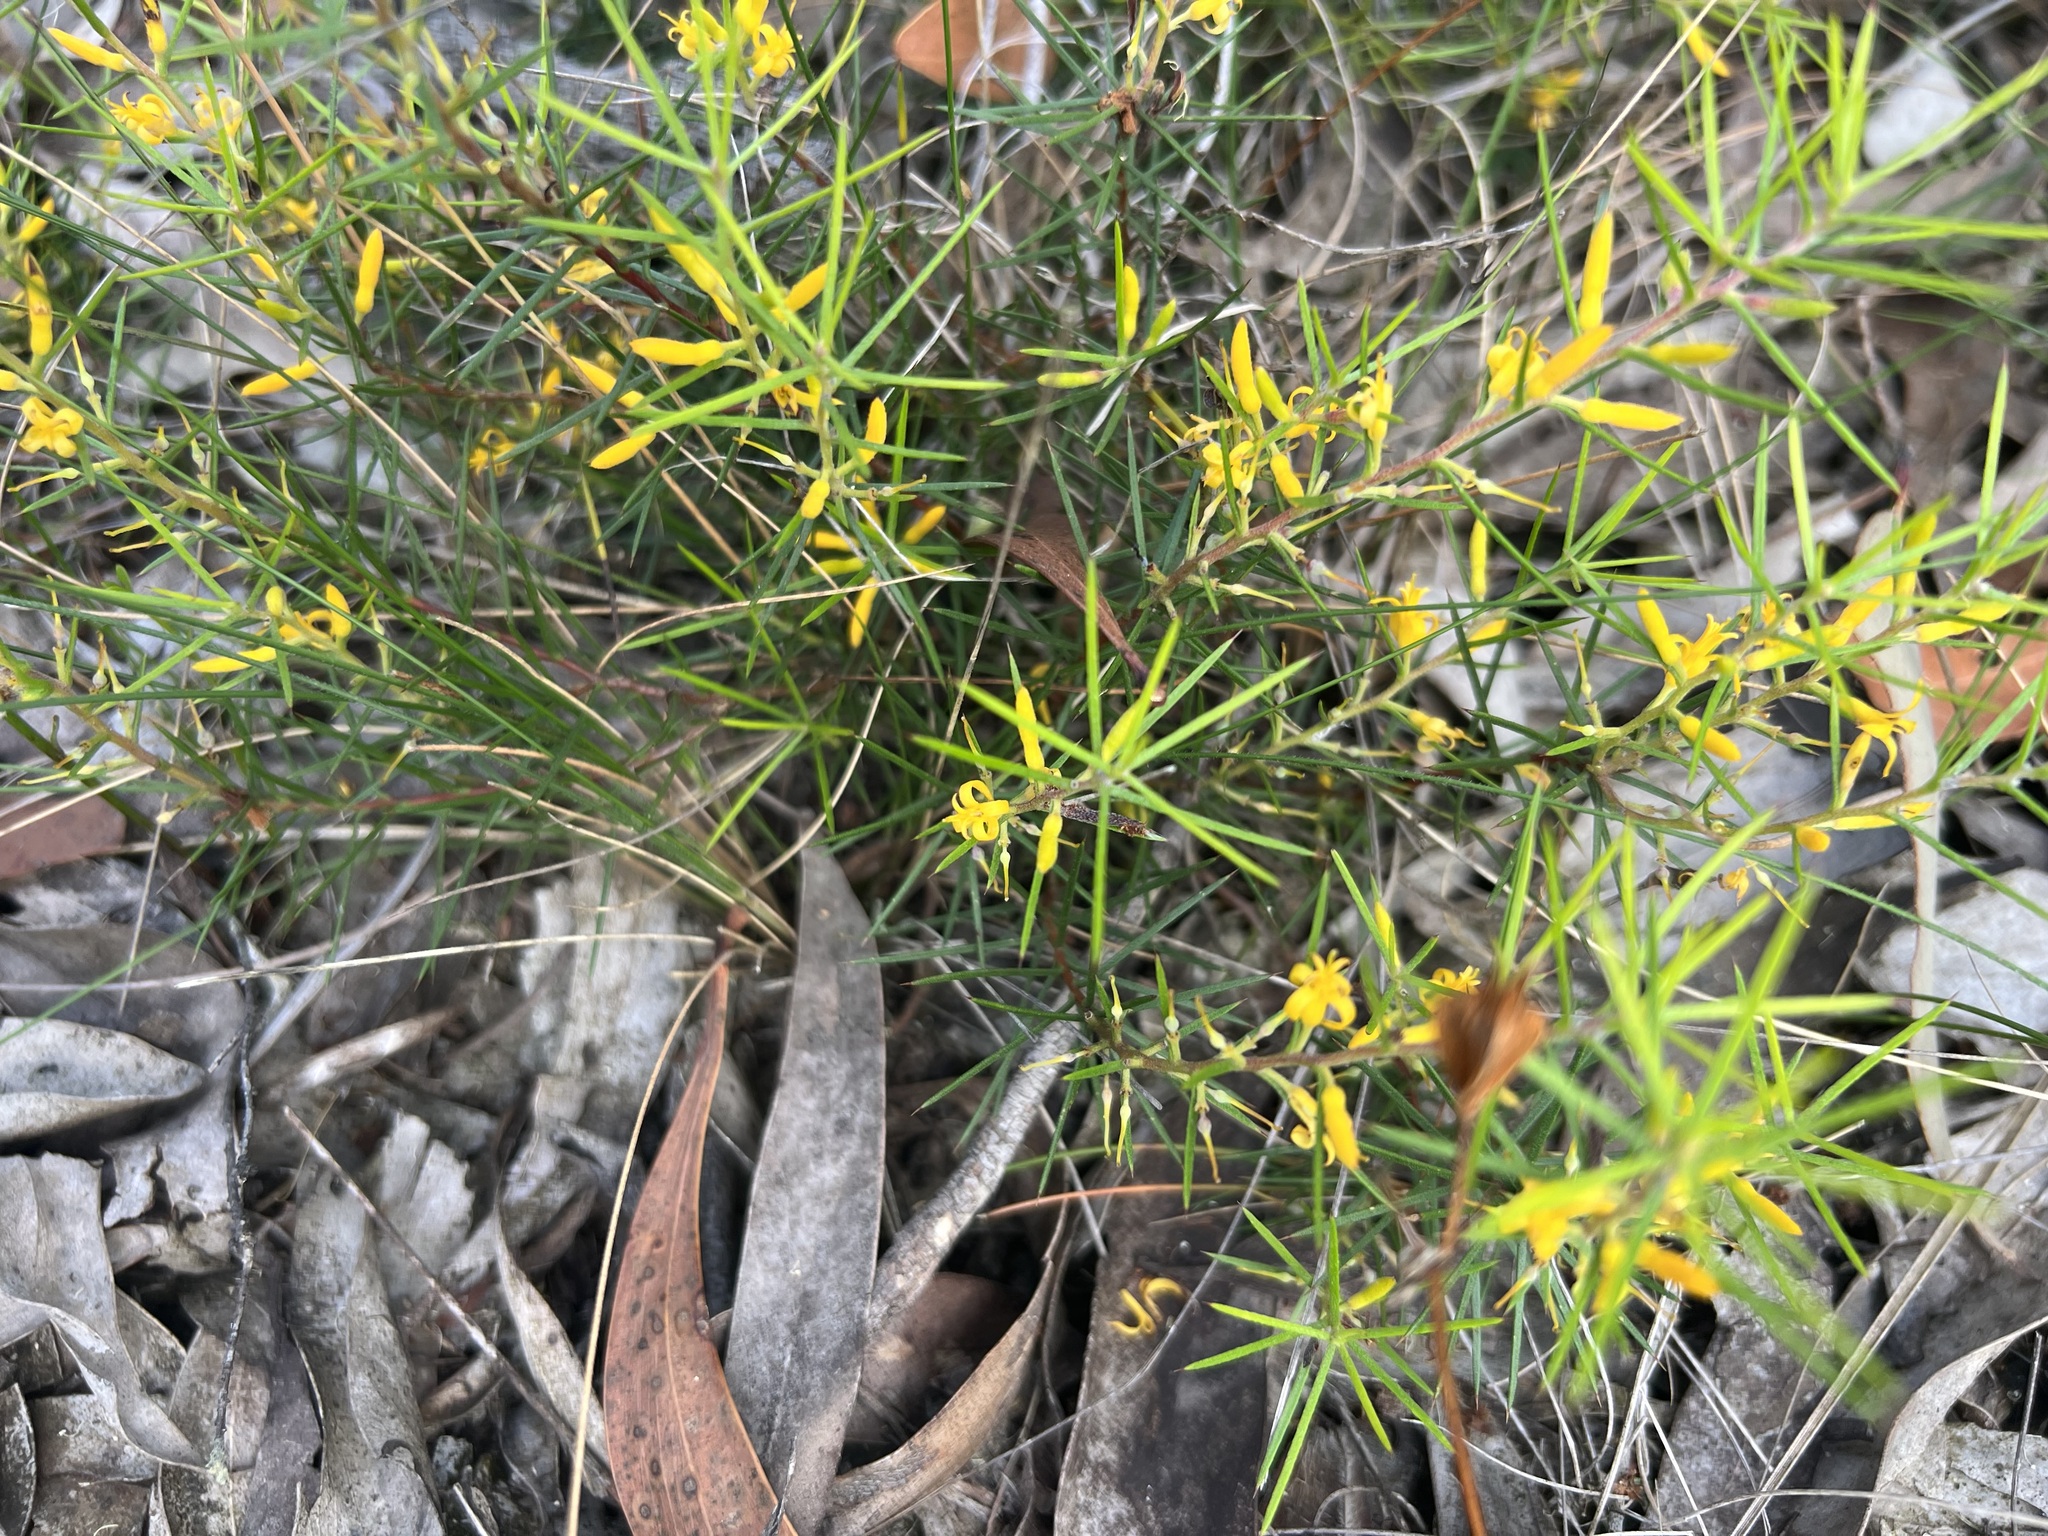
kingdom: Plantae
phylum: Tracheophyta
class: Magnoliopsida
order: Proteales
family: Proteaceae
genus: Persoonia
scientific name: Persoonia juniperina
